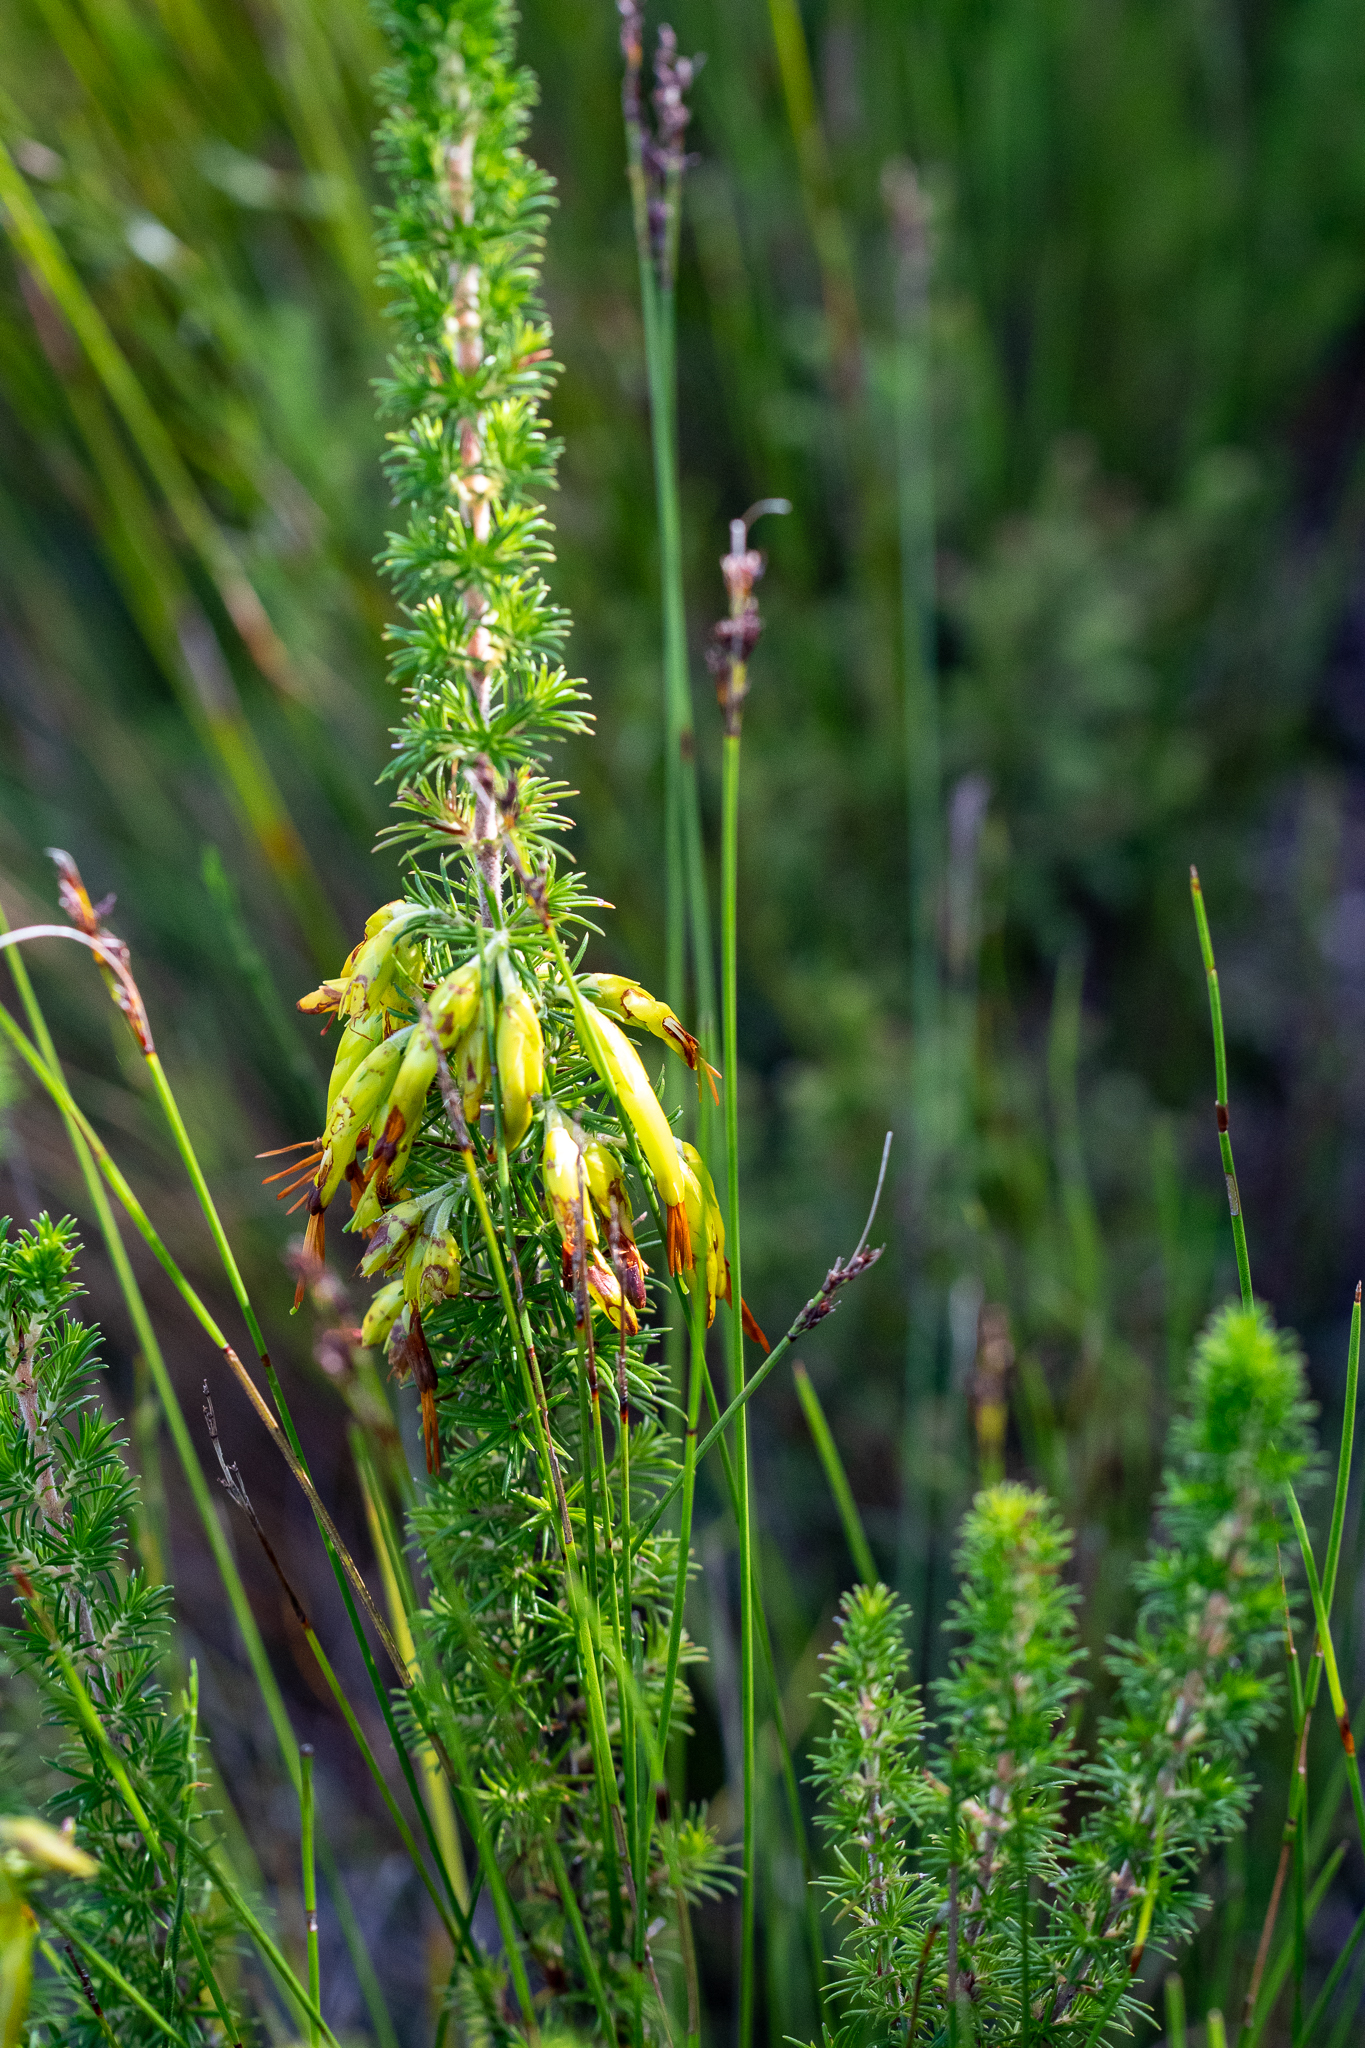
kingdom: Plantae
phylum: Tracheophyta
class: Magnoliopsida
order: Ericales
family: Ericaceae
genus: Erica
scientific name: Erica coccinea
